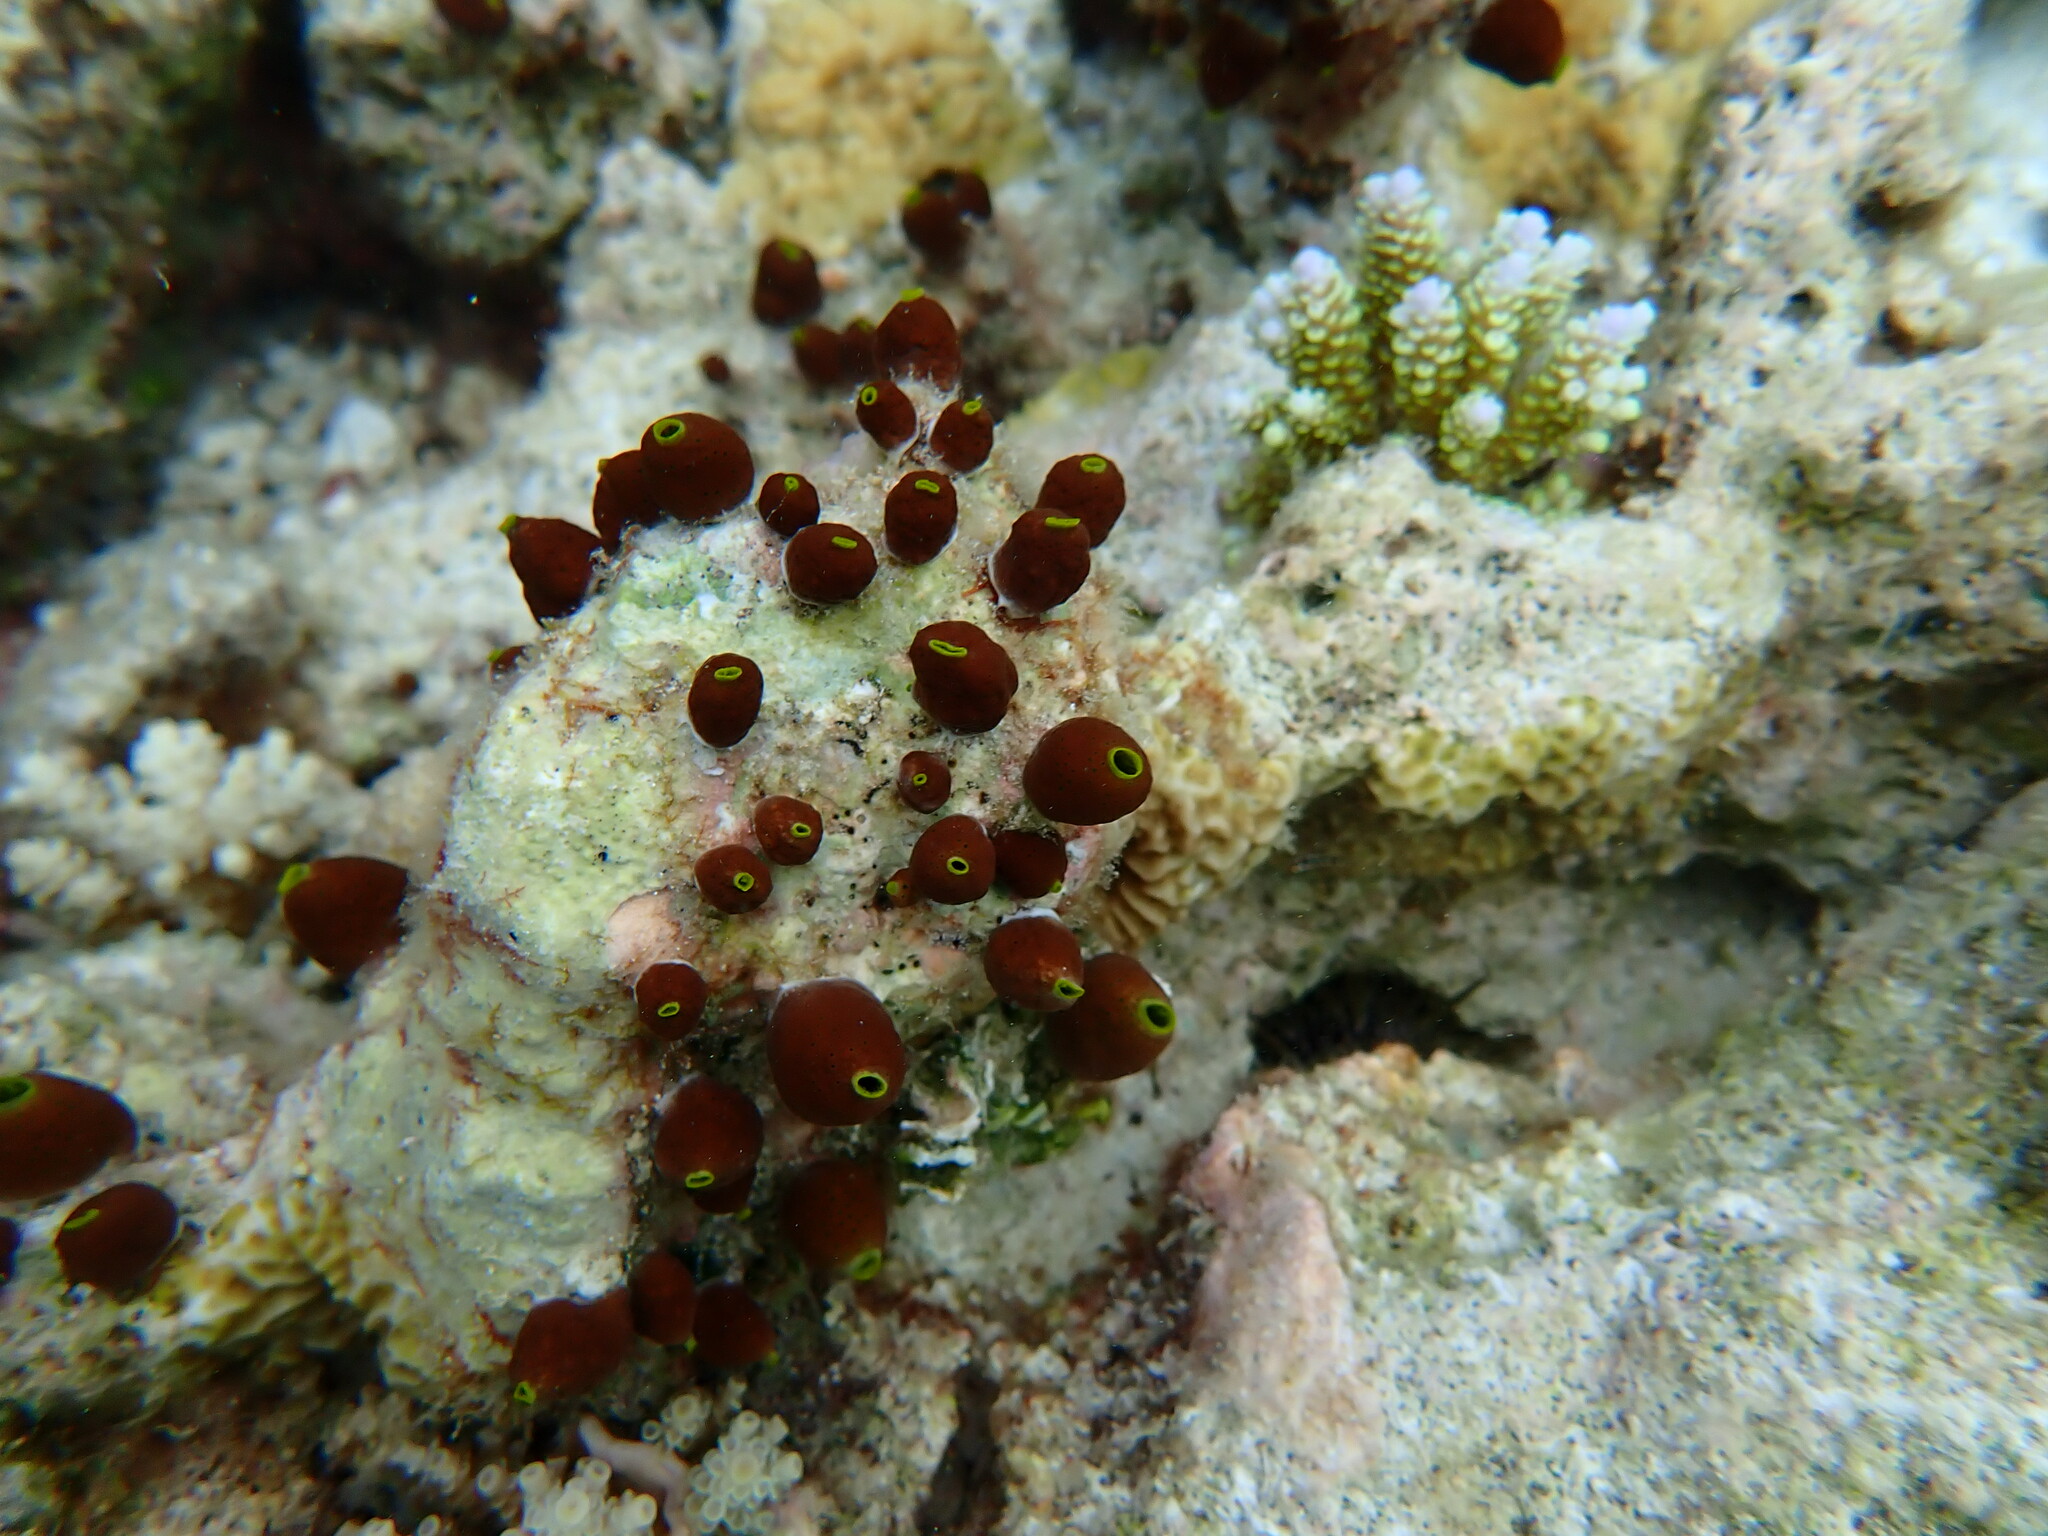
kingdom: Animalia
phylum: Chordata
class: Ascidiacea
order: Aplousobranchia
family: Didemnidae
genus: Didemnum
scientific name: Didemnum molle
